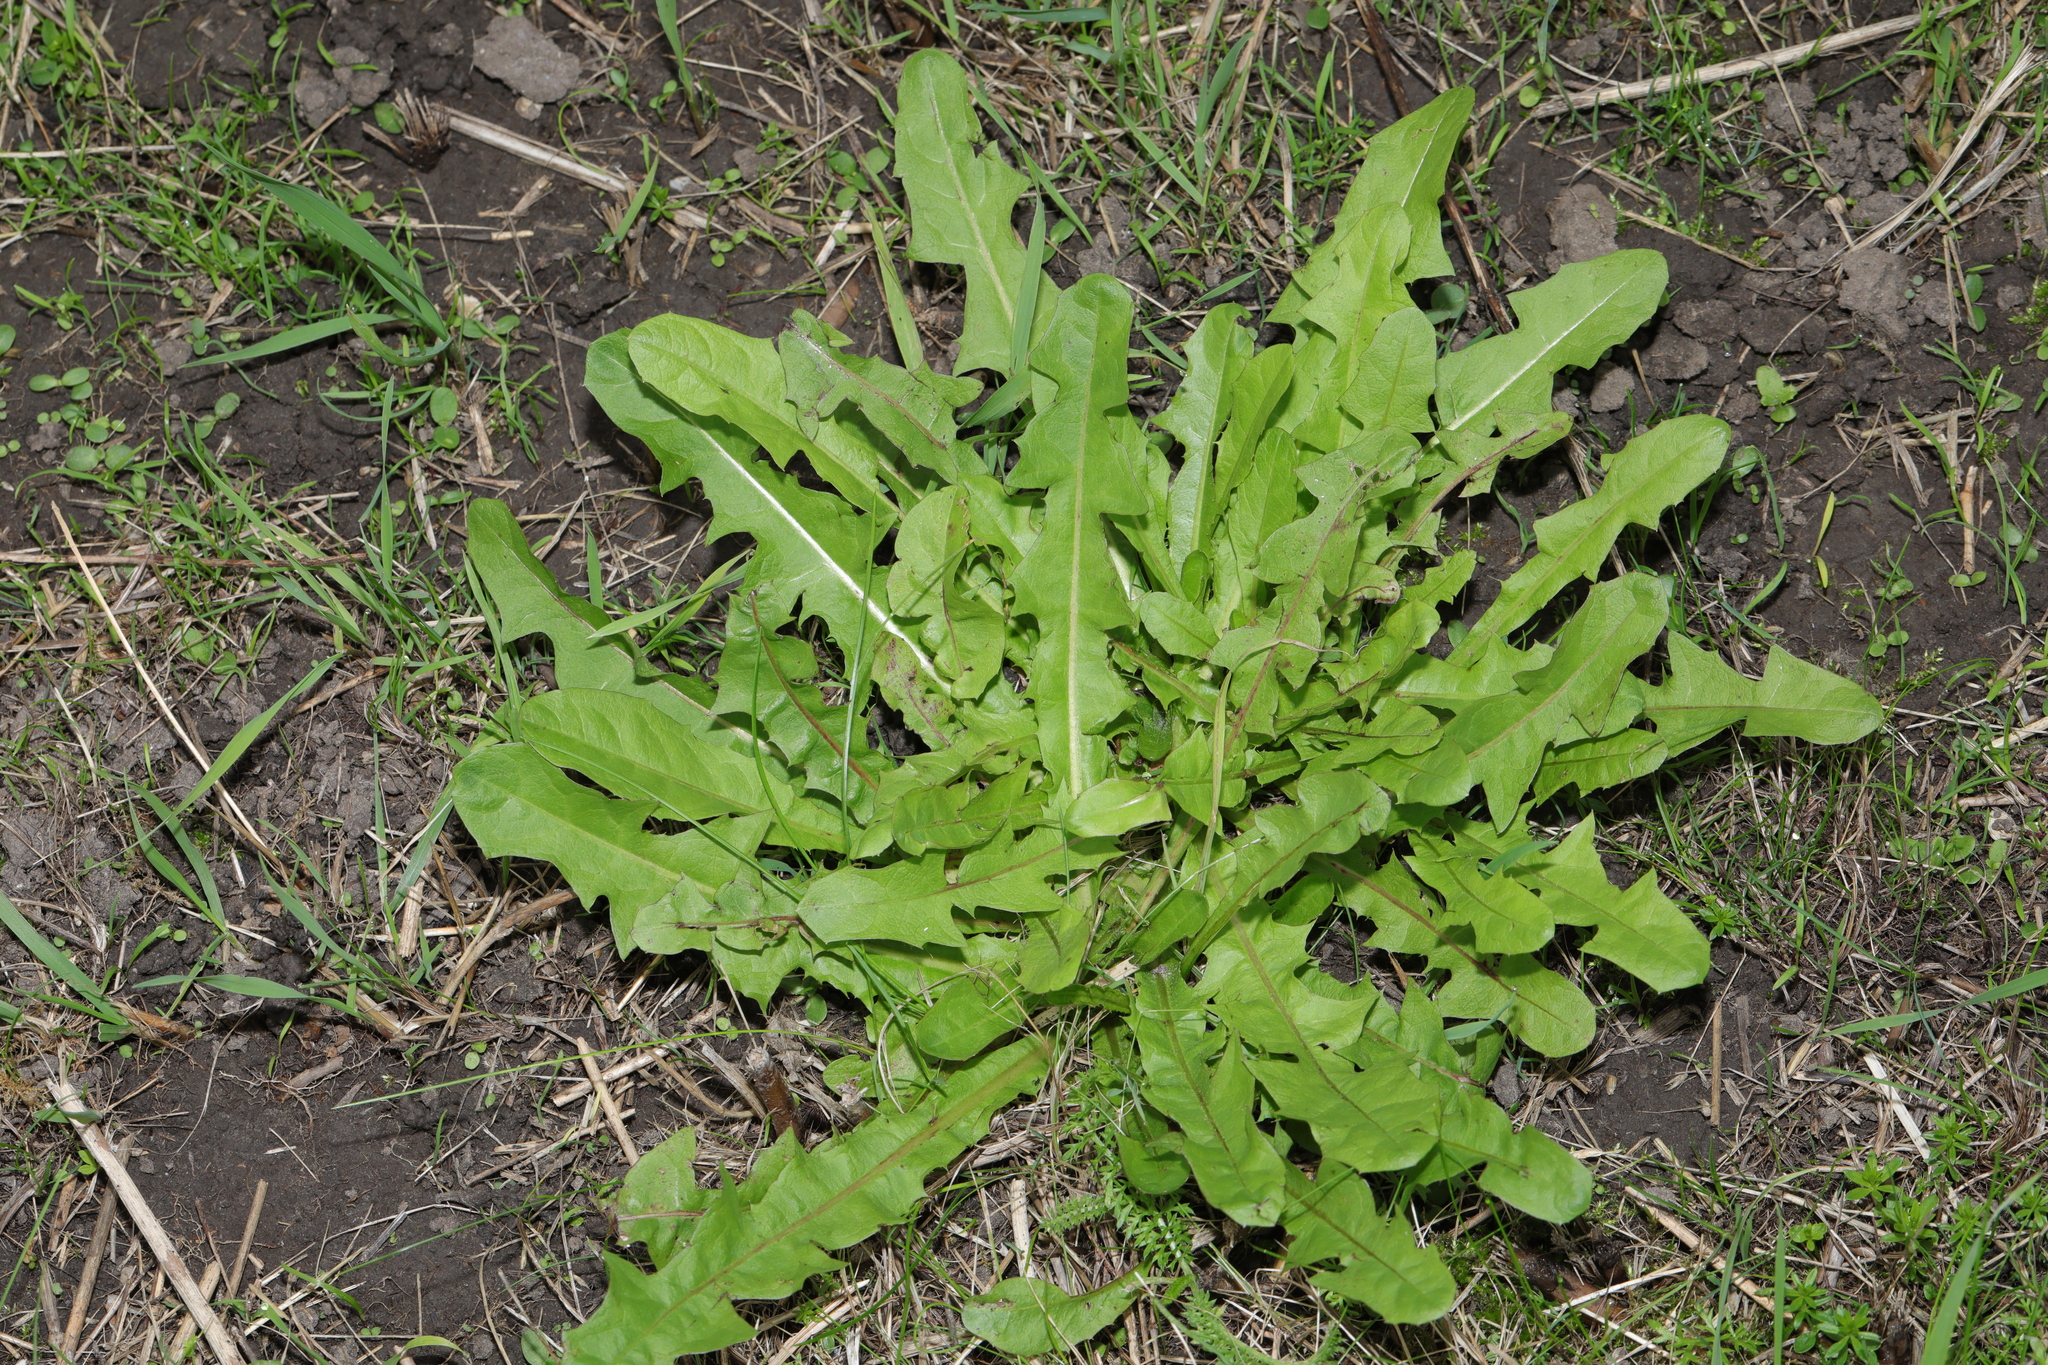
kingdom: Plantae
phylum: Tracheophyta
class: Magnoliopsida
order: Asterales
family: Asteraceae
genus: Taraxacum
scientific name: Taraxacum officinale
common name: Common dandelion
